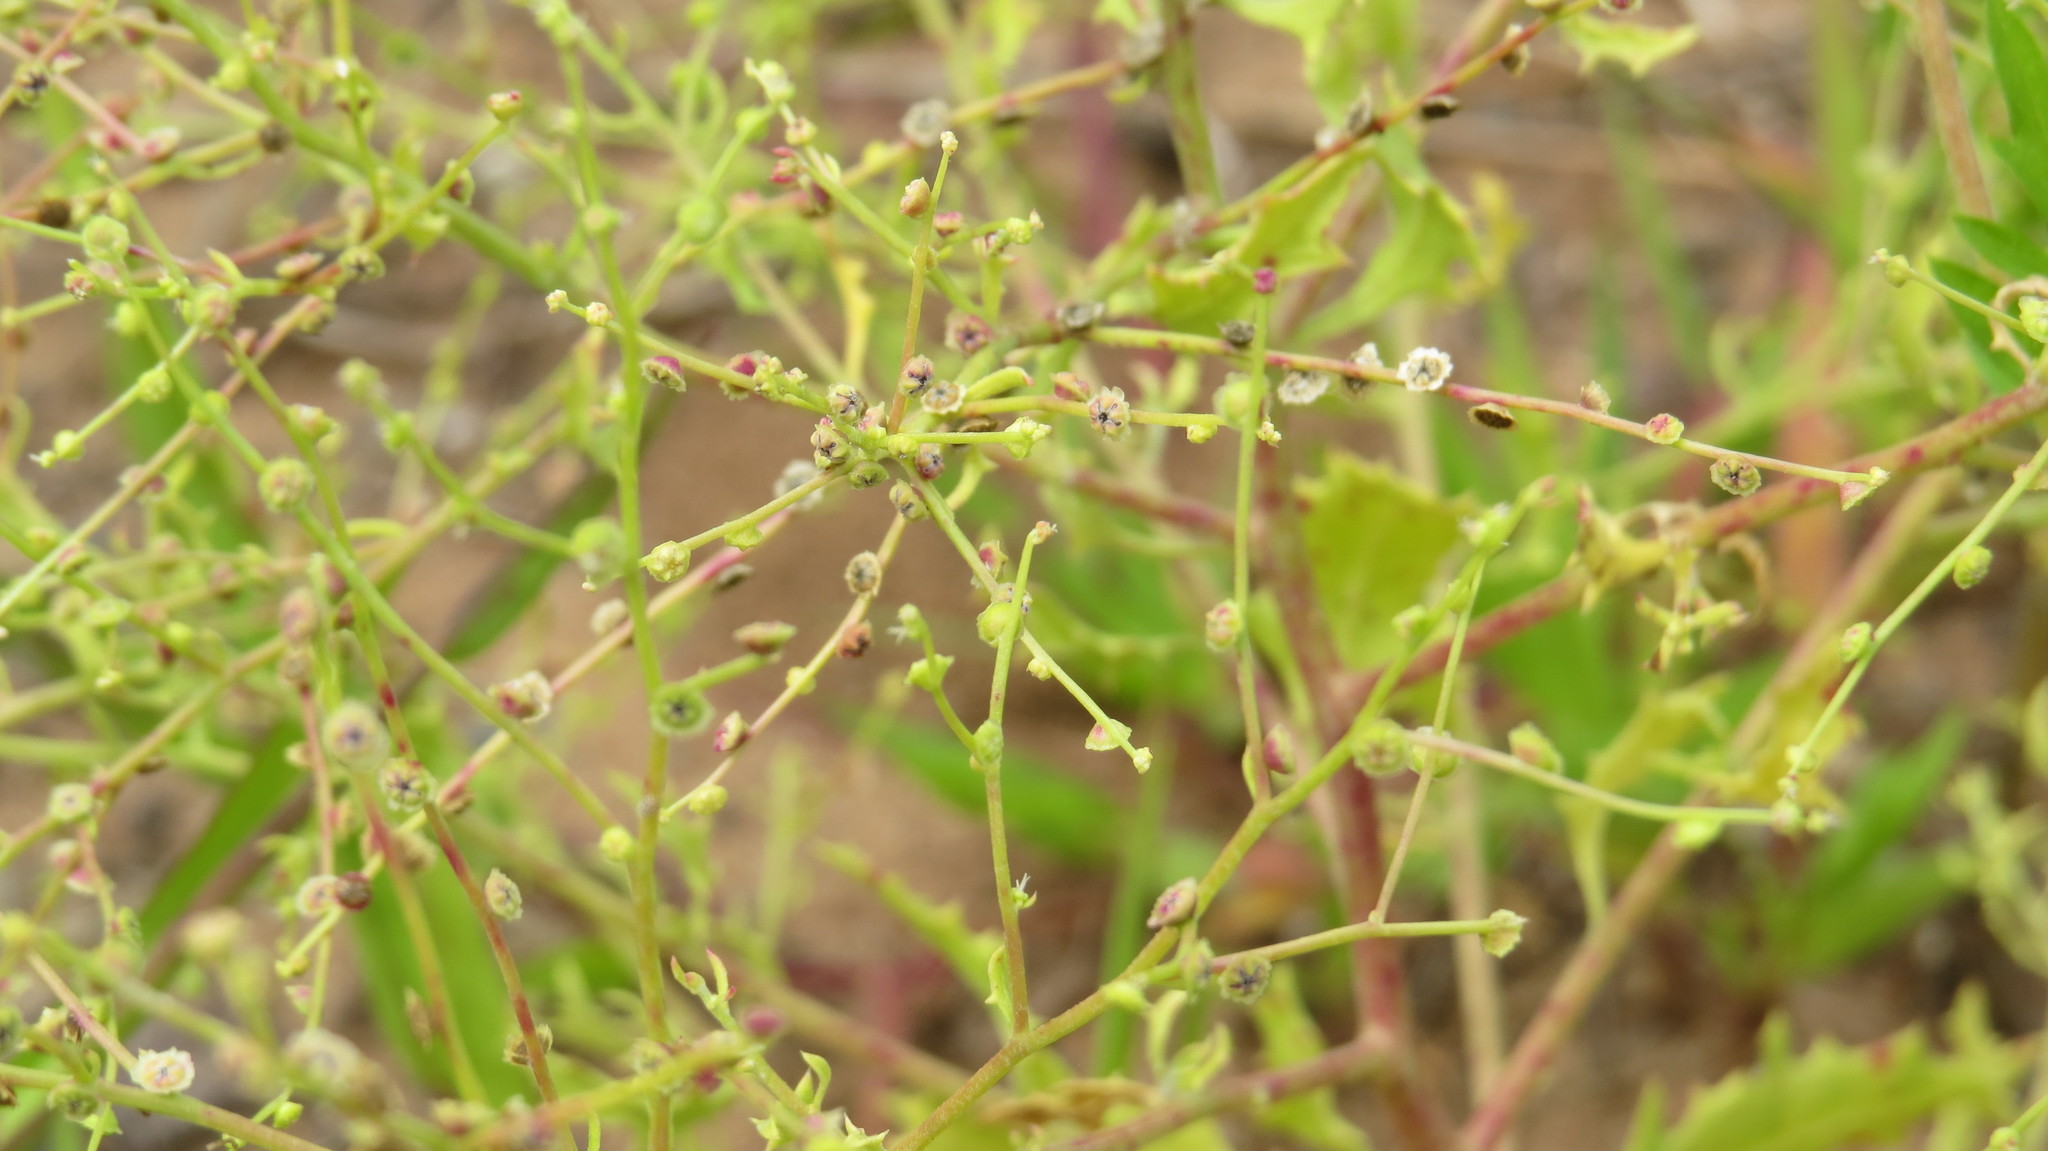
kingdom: Plantae
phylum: Tracheophyta
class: Magnoliopsida
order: Caryophyllales
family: Amaranthaceae
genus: Dysphania
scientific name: Dysphania atriplicifolia
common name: Plains tumbleweed
